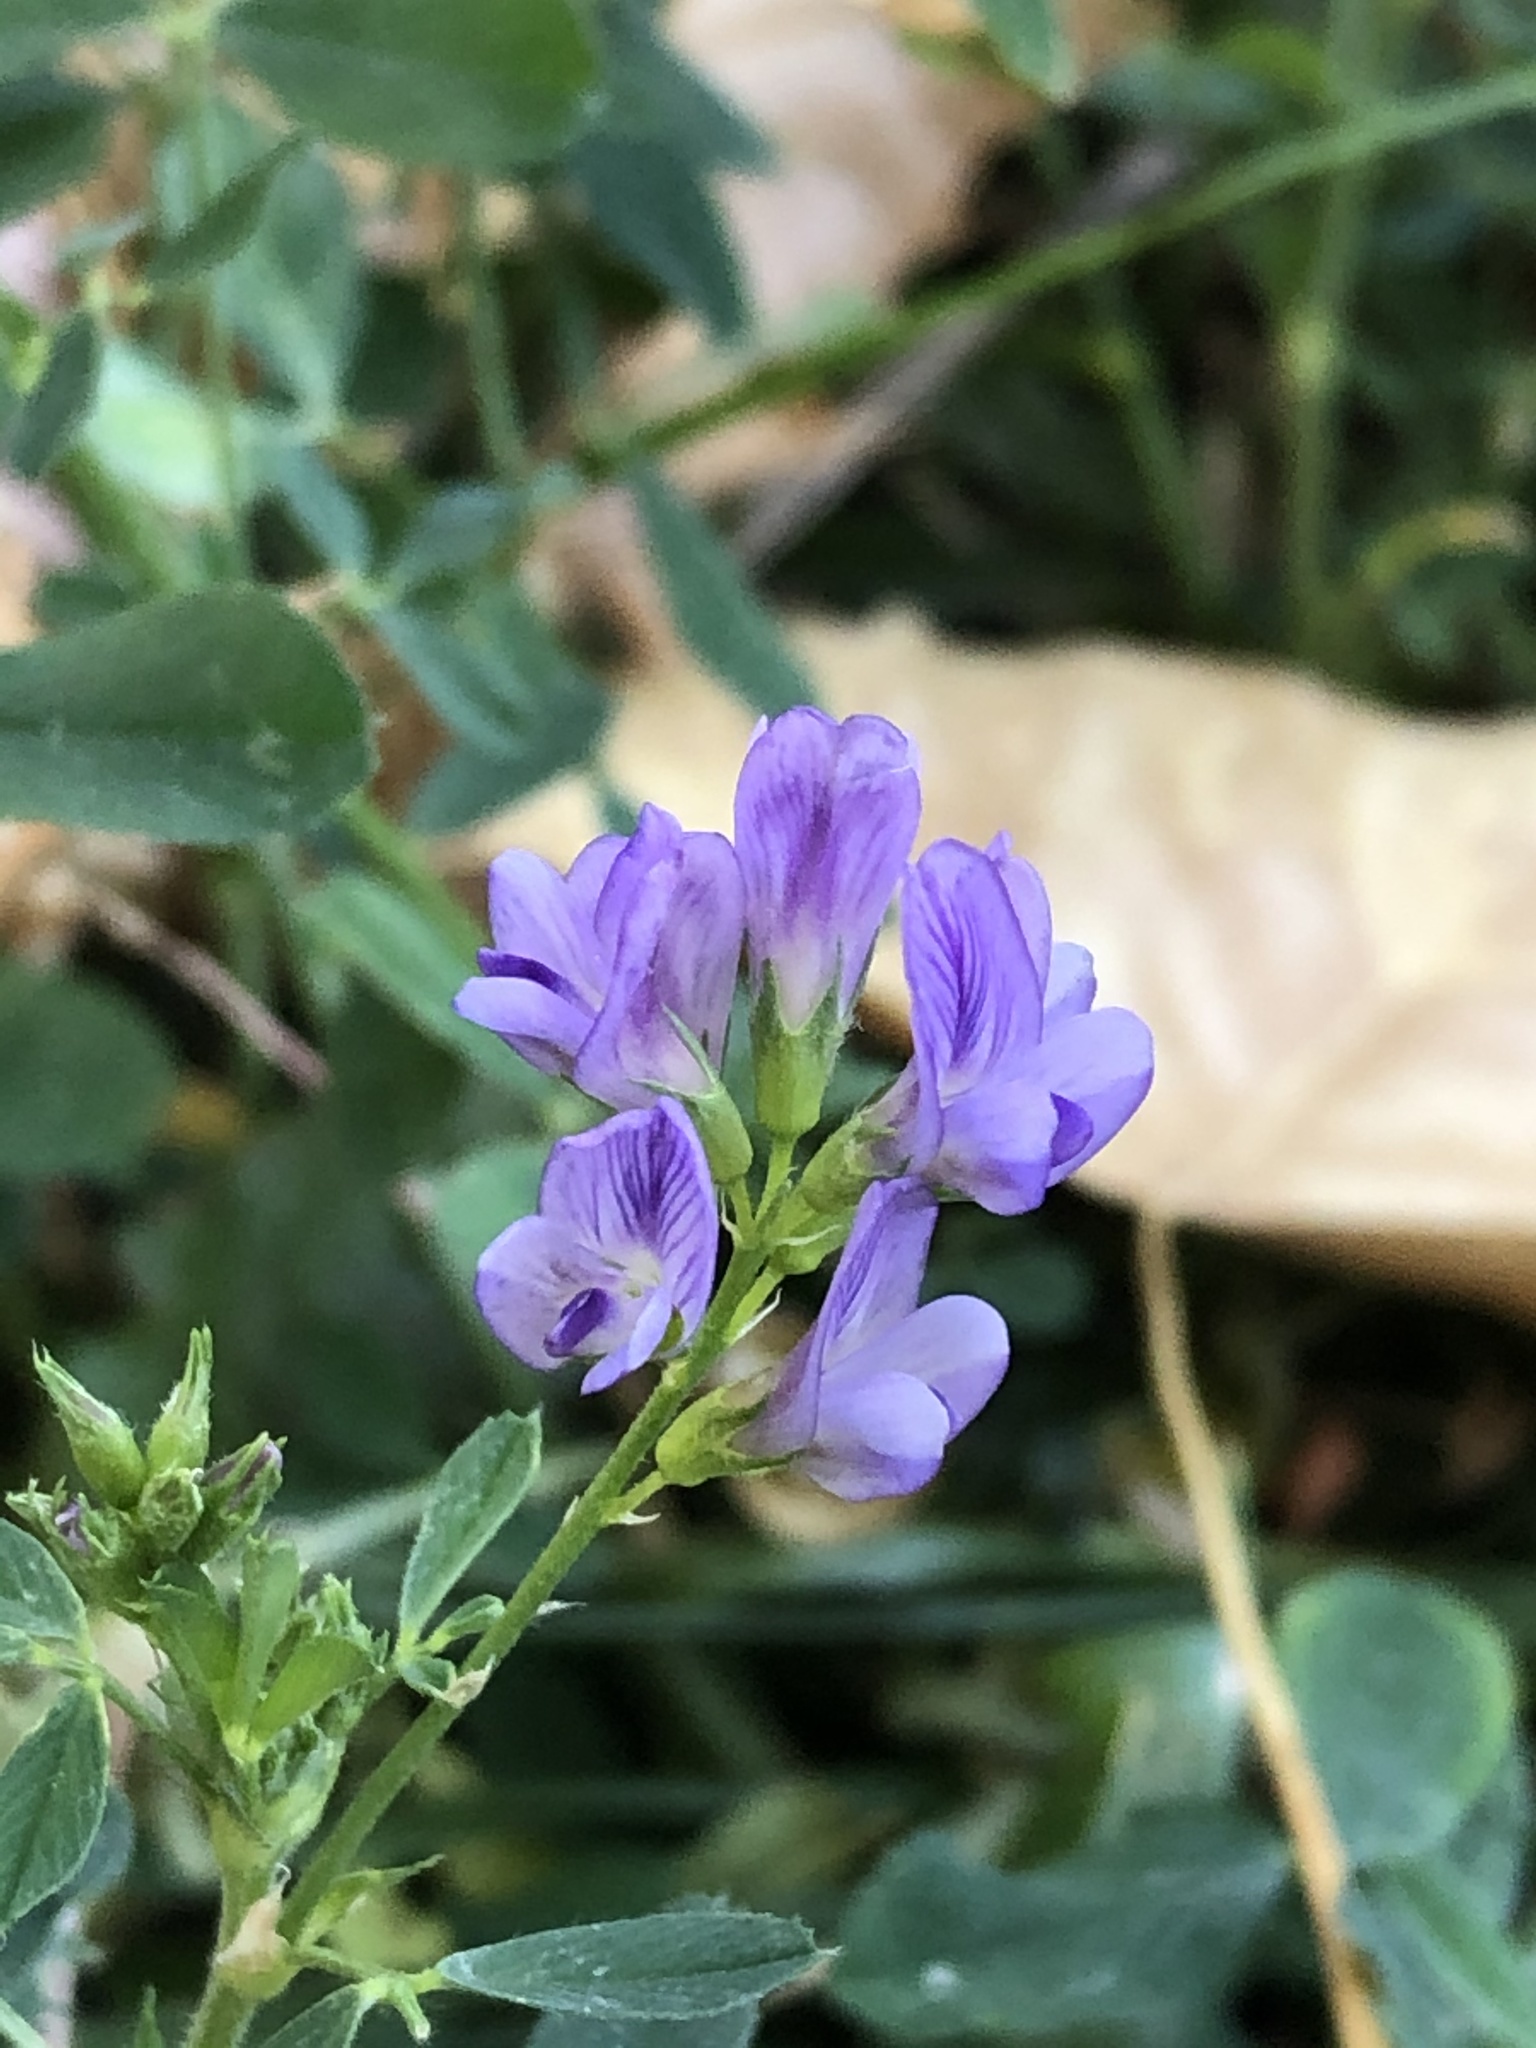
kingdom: Plantae
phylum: Tracheophyta
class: Magnoliopsida
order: Fabales
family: Fabaceae
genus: Medicago
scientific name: Medicago sativa
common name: Alfalfa
